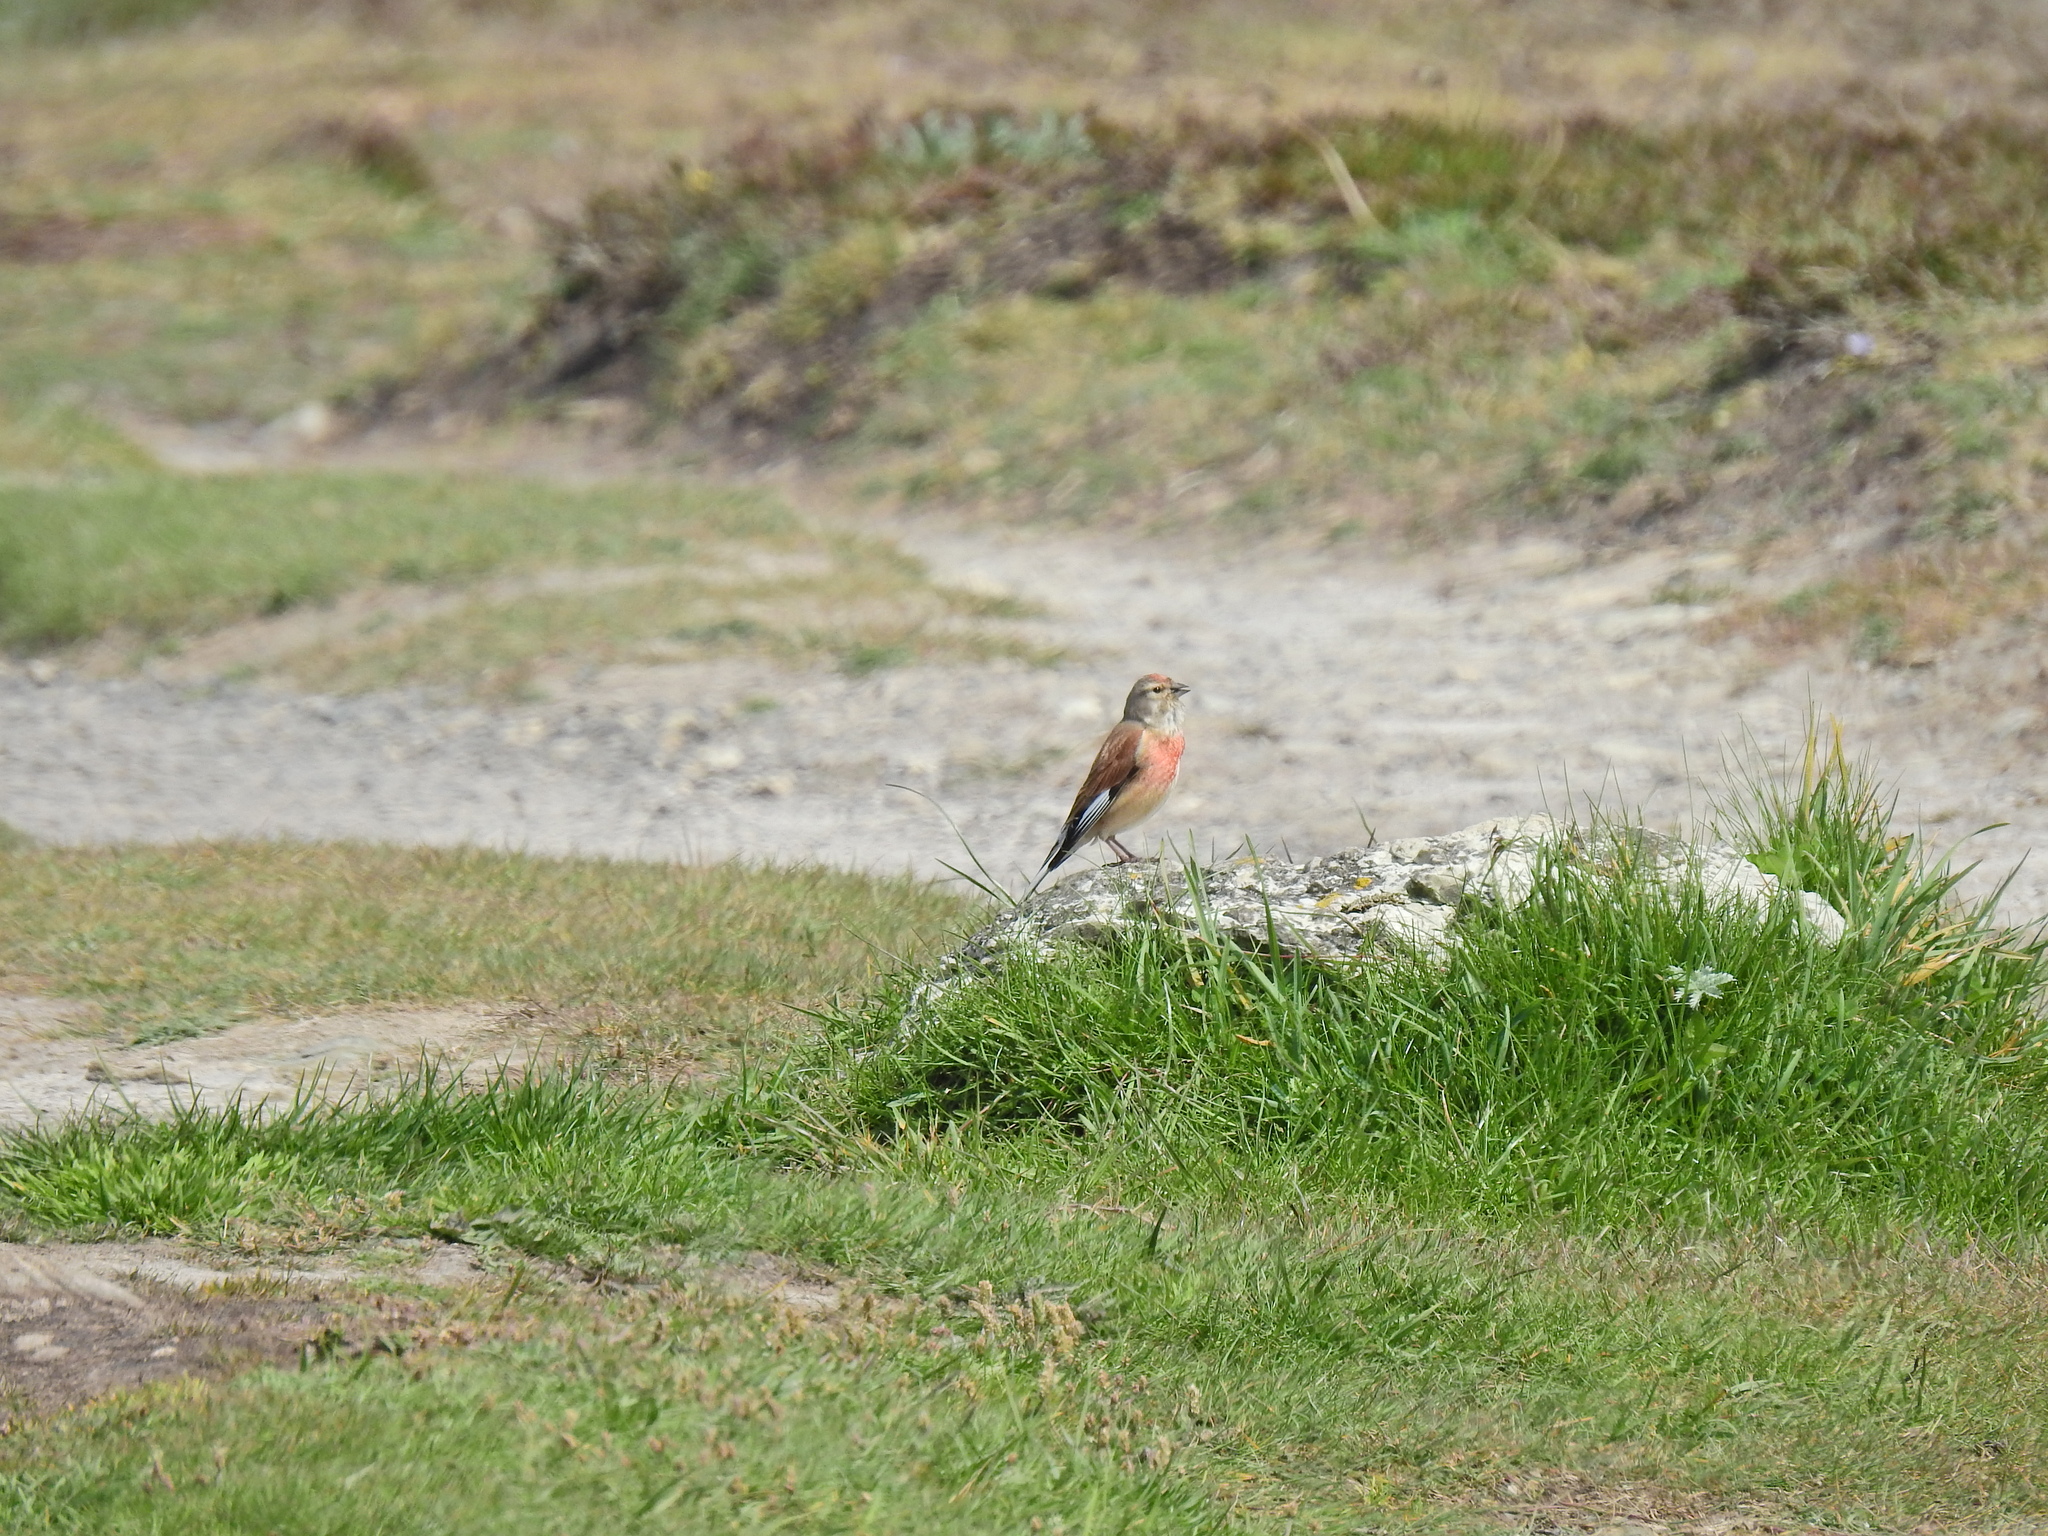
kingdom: Animalia
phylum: Chordata
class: Aves
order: Passeriformes
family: Fringillidae
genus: Linaria
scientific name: Linaria cannabina
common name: Common linnet
